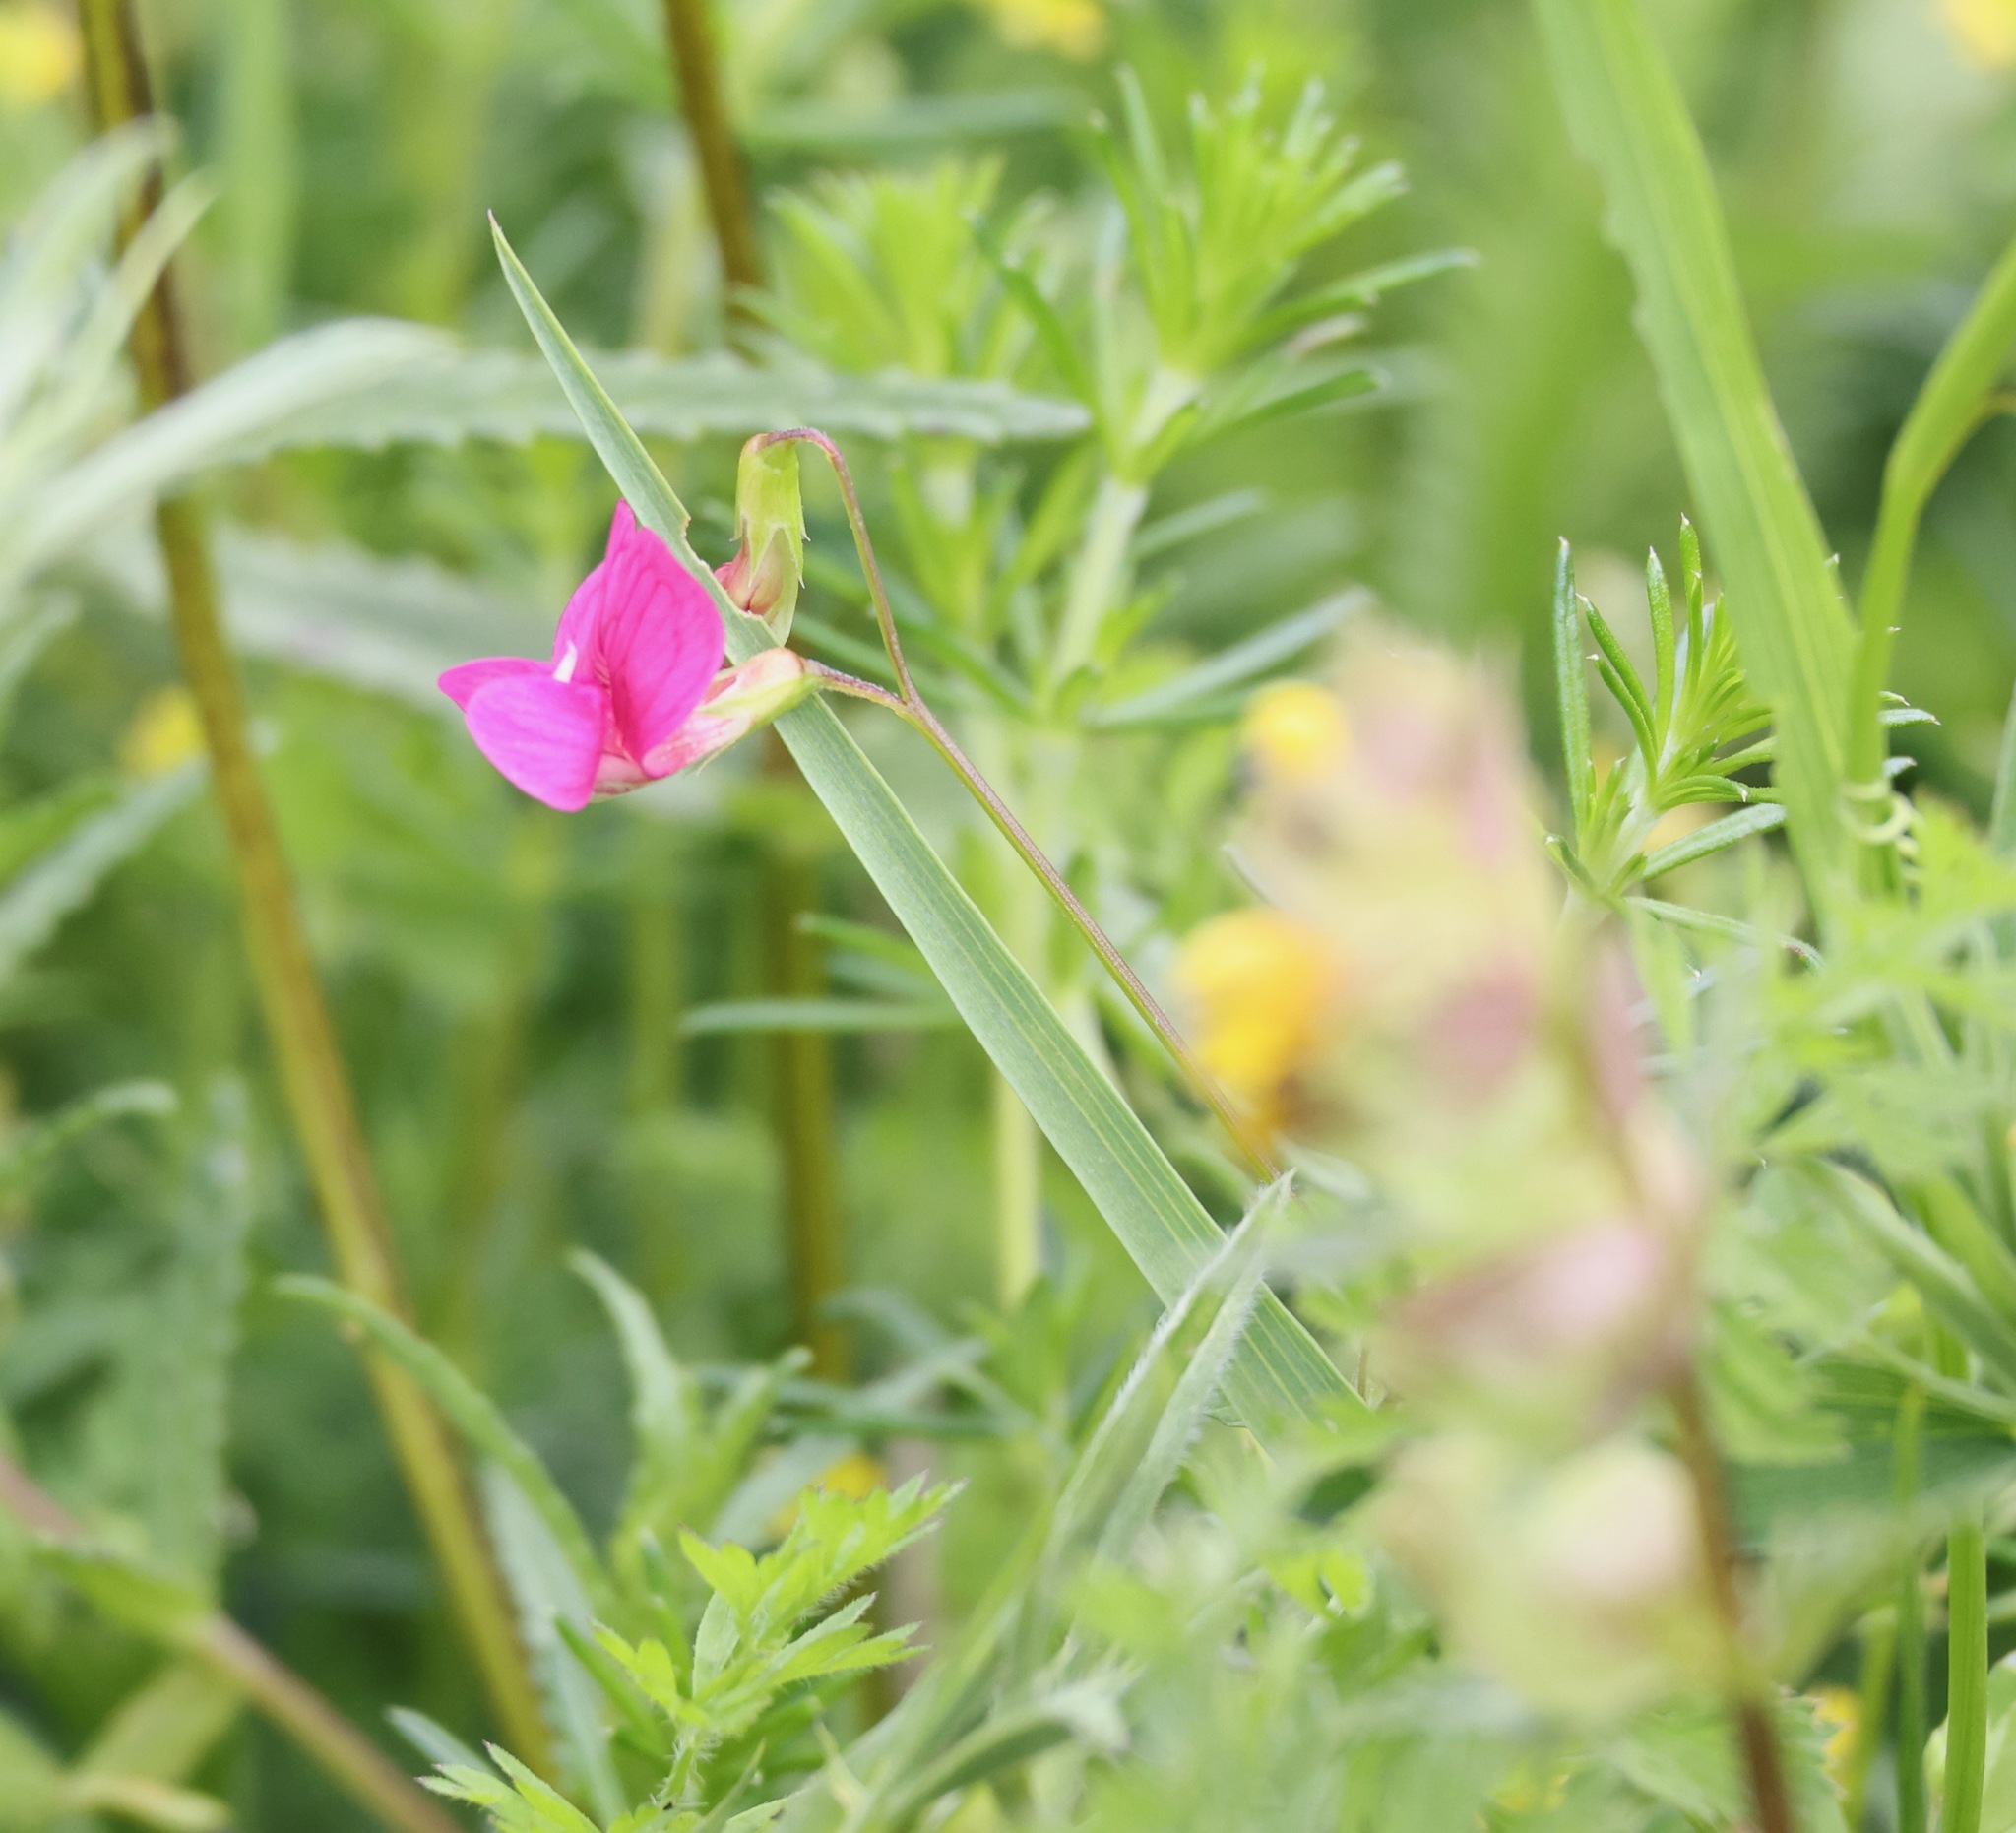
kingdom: Plantae
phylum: Tracheophyta
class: Magnoliopsida
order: Fabales
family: Fabaceae
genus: Lathyrus
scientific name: Lathyrus nissolia
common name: Grass vetchling
